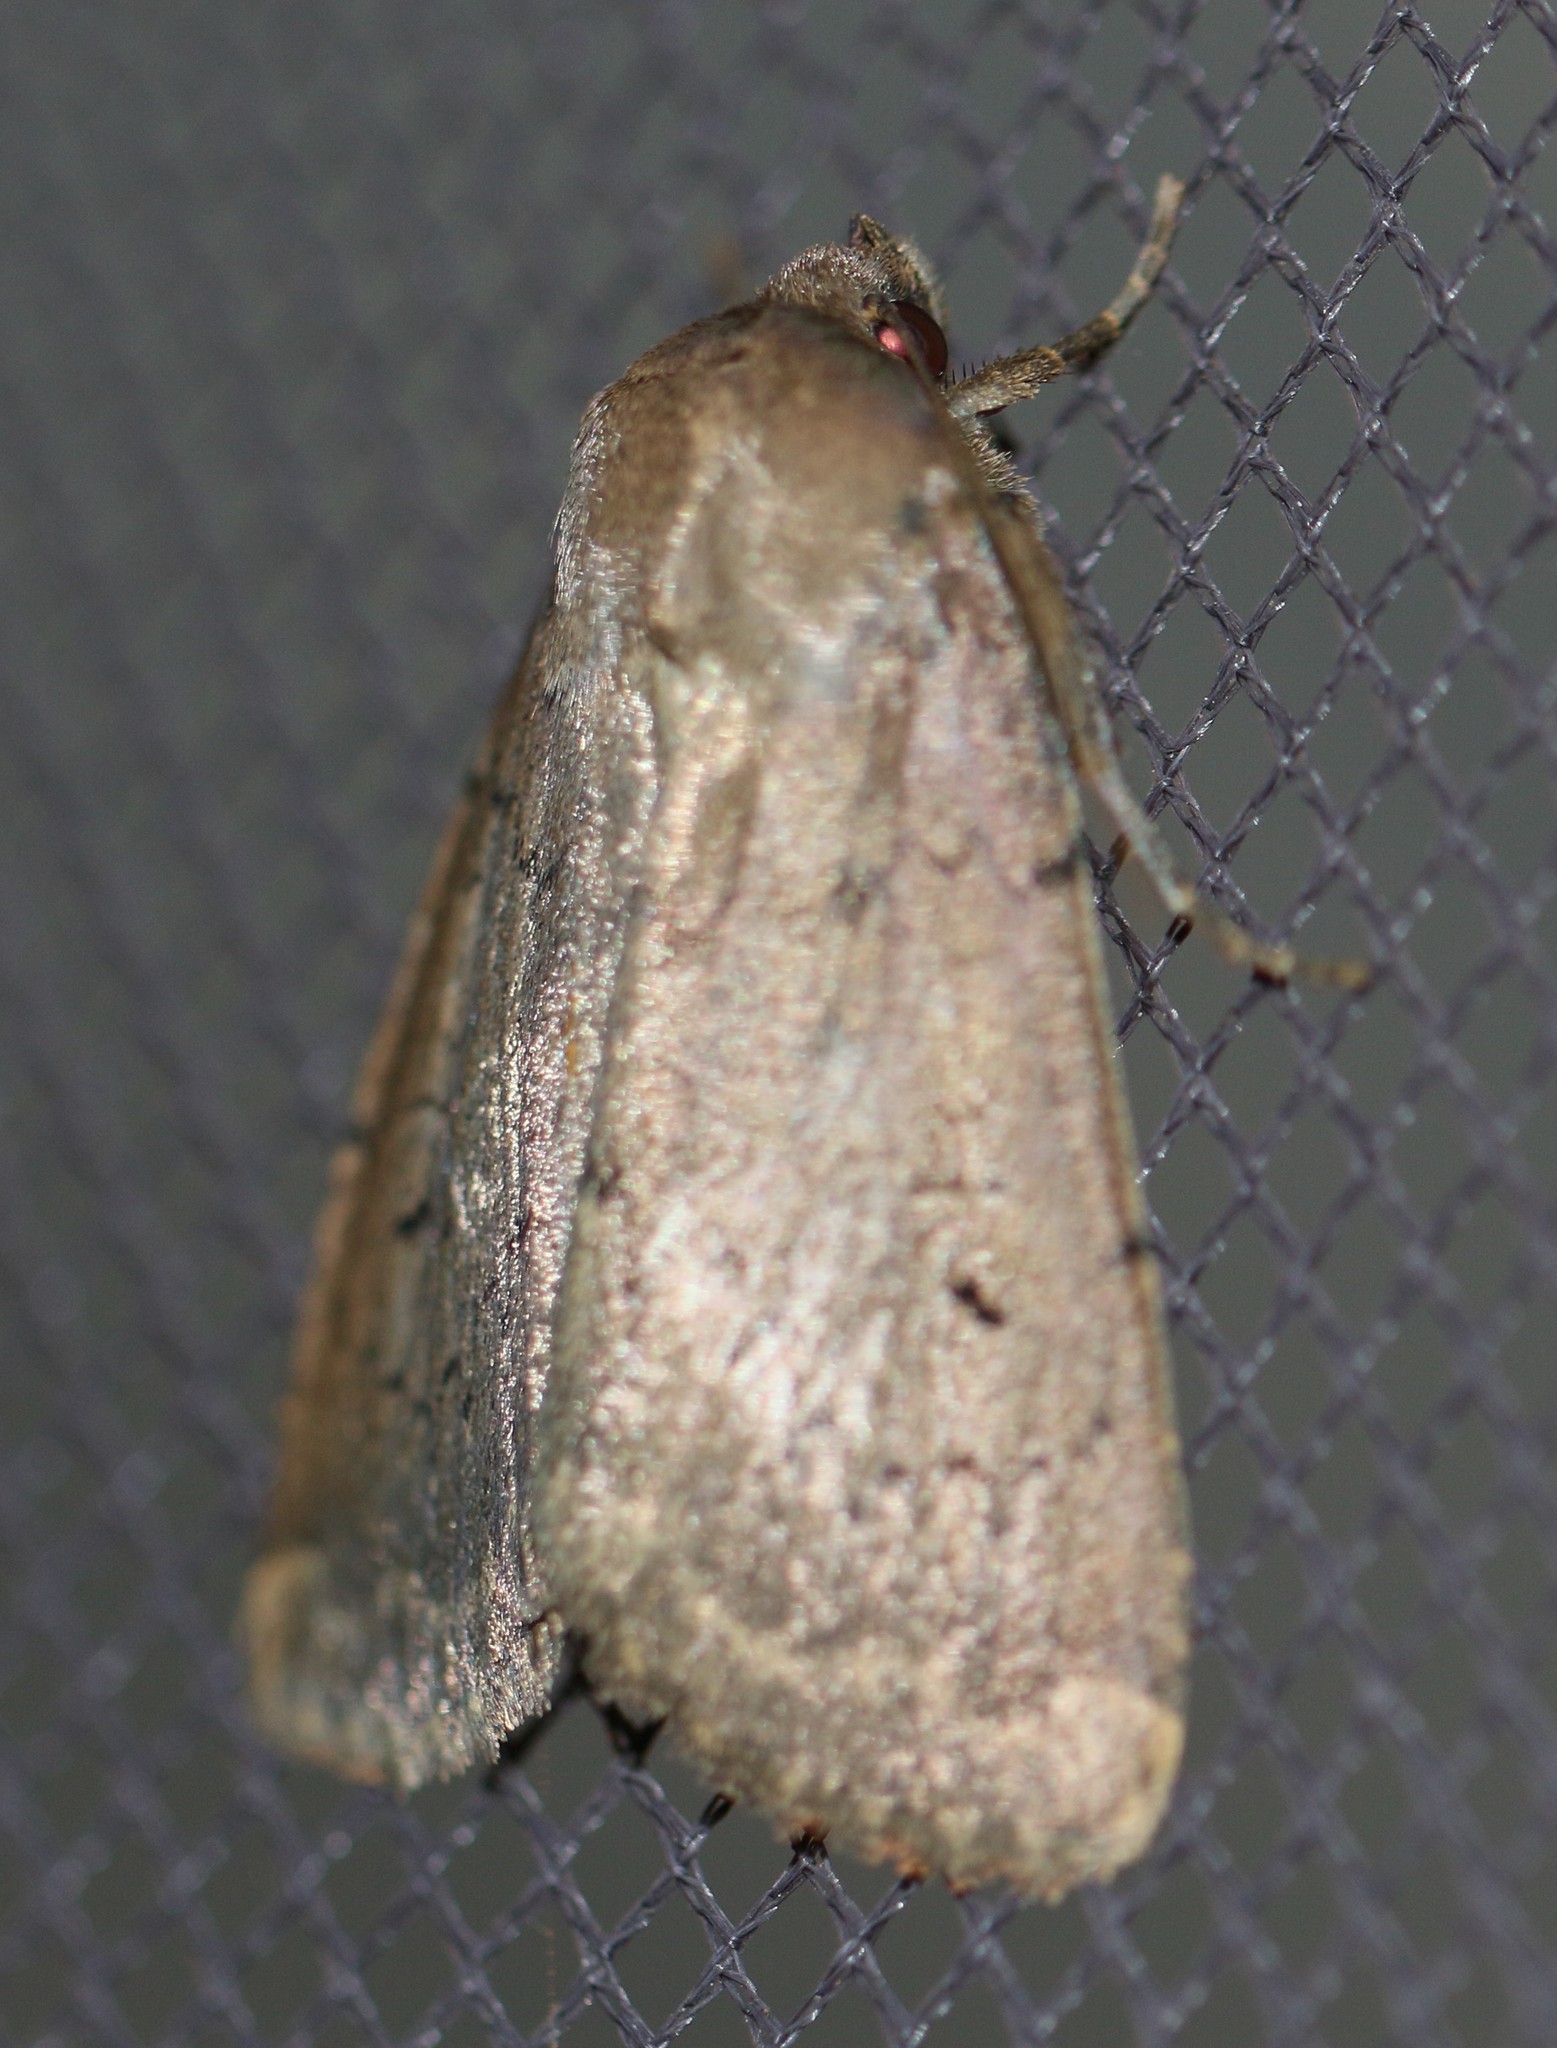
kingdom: Animalia
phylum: Arthropoda
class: Insecta
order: Lepidoptera
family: Noctuidae
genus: Graphiphora
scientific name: Graphiphora augur
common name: Double dart
